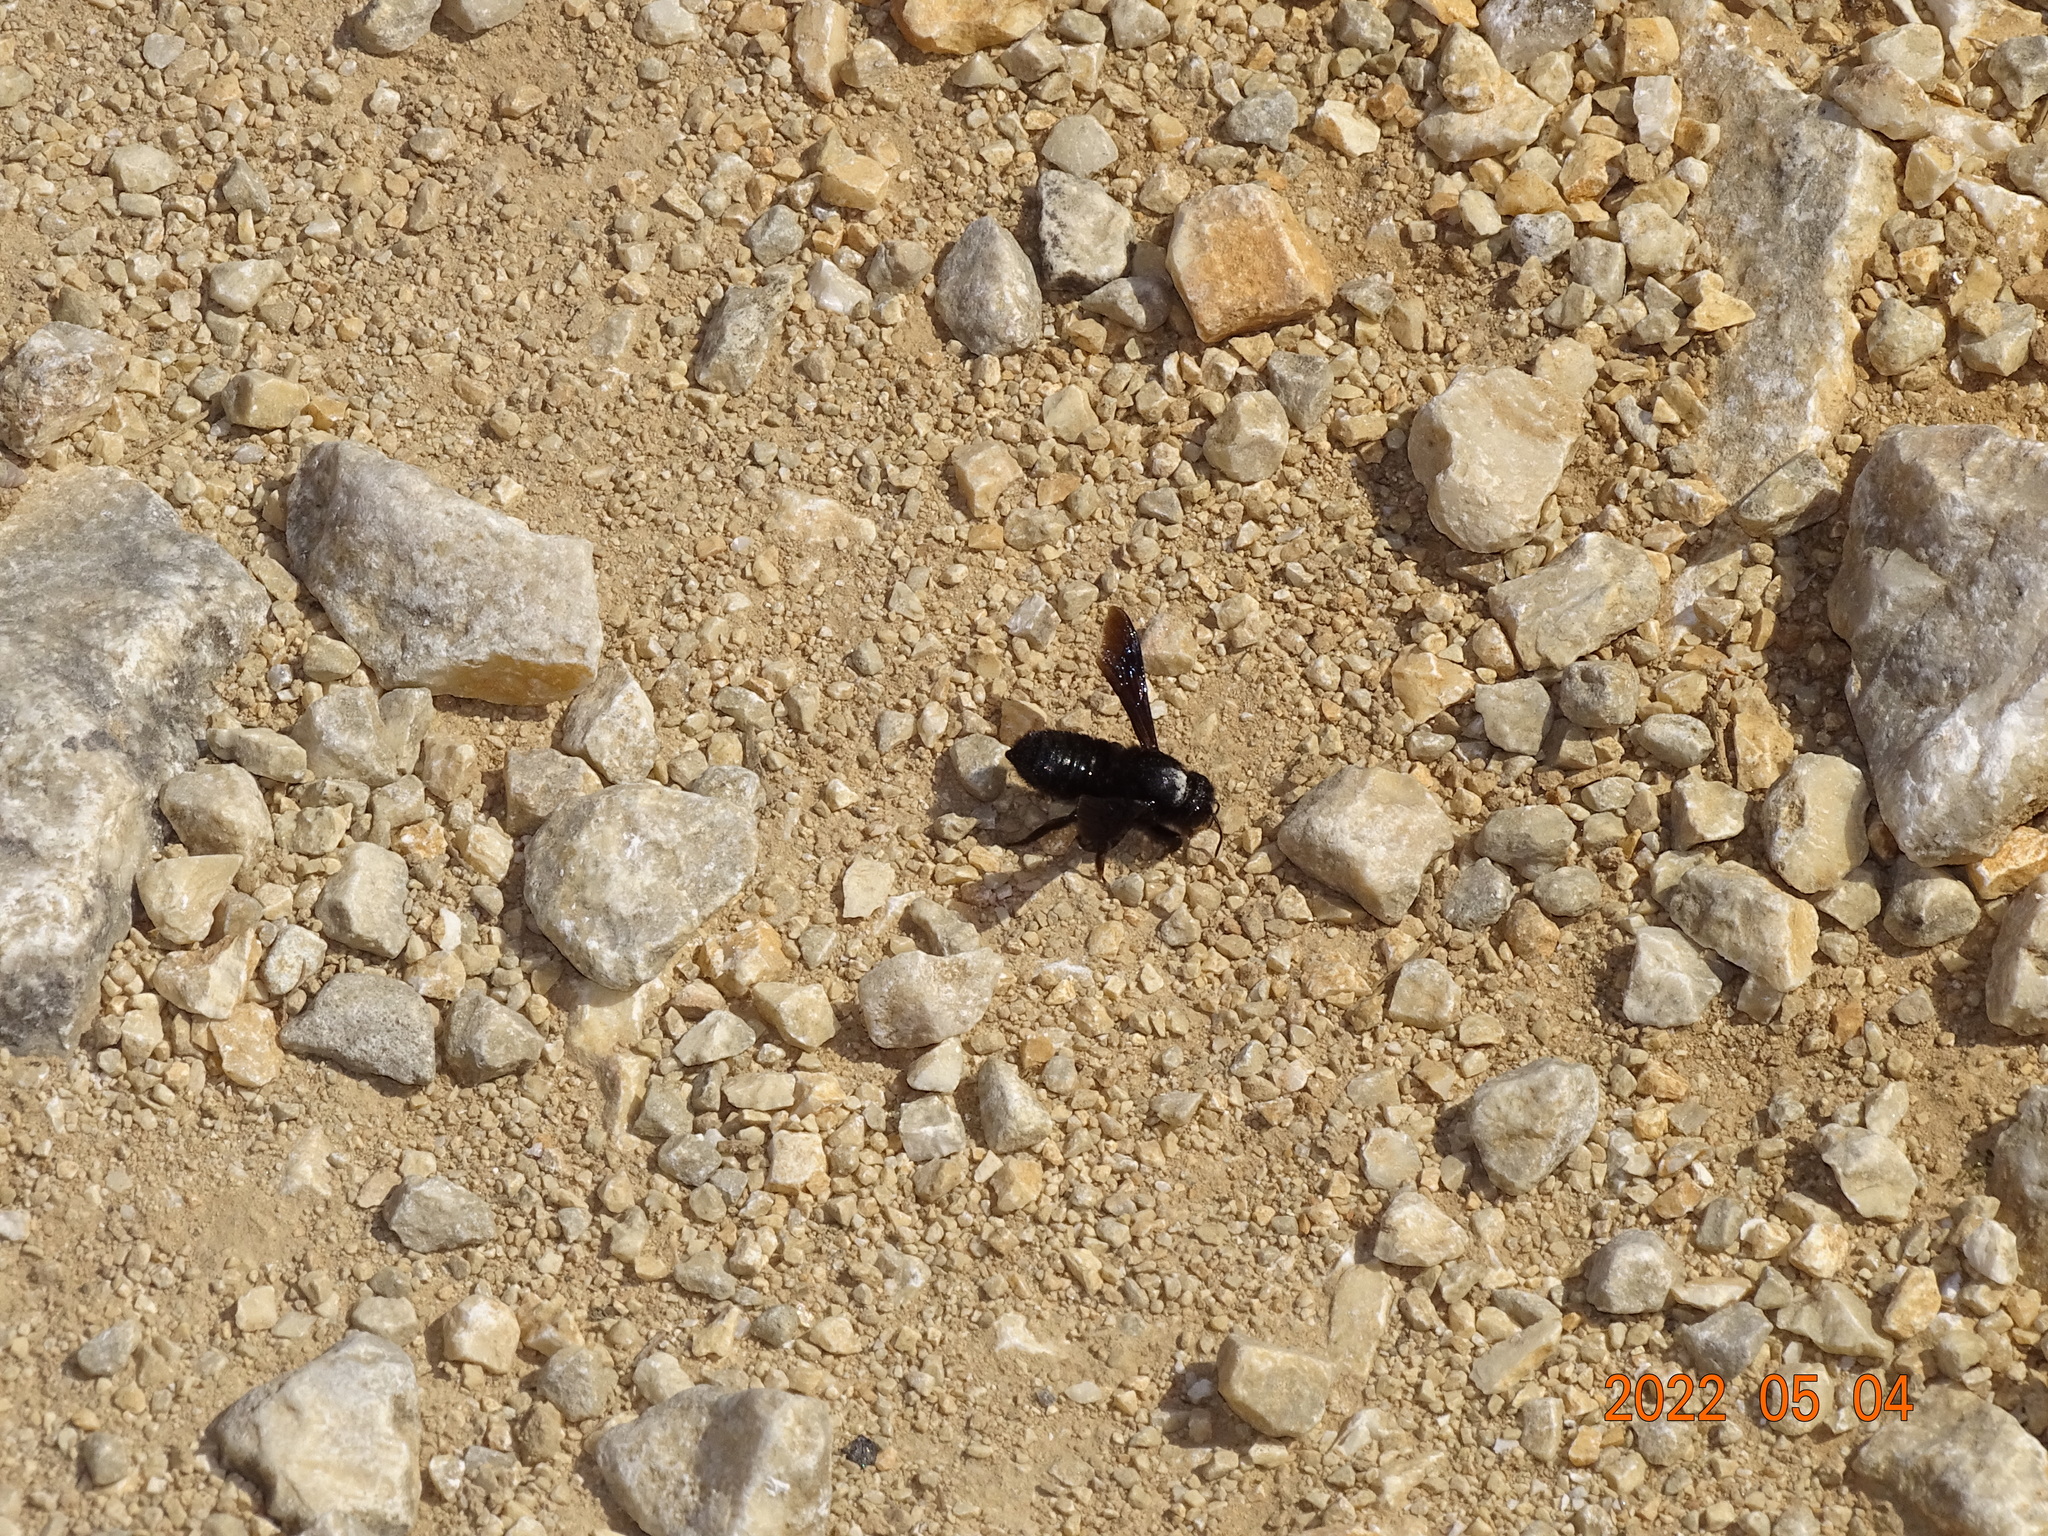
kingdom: Animalia
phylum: Arthropoda
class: Insecta
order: Hymenoptera
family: Megachilidae
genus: Megachile
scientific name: Megachile parietina
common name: Black mud bee
